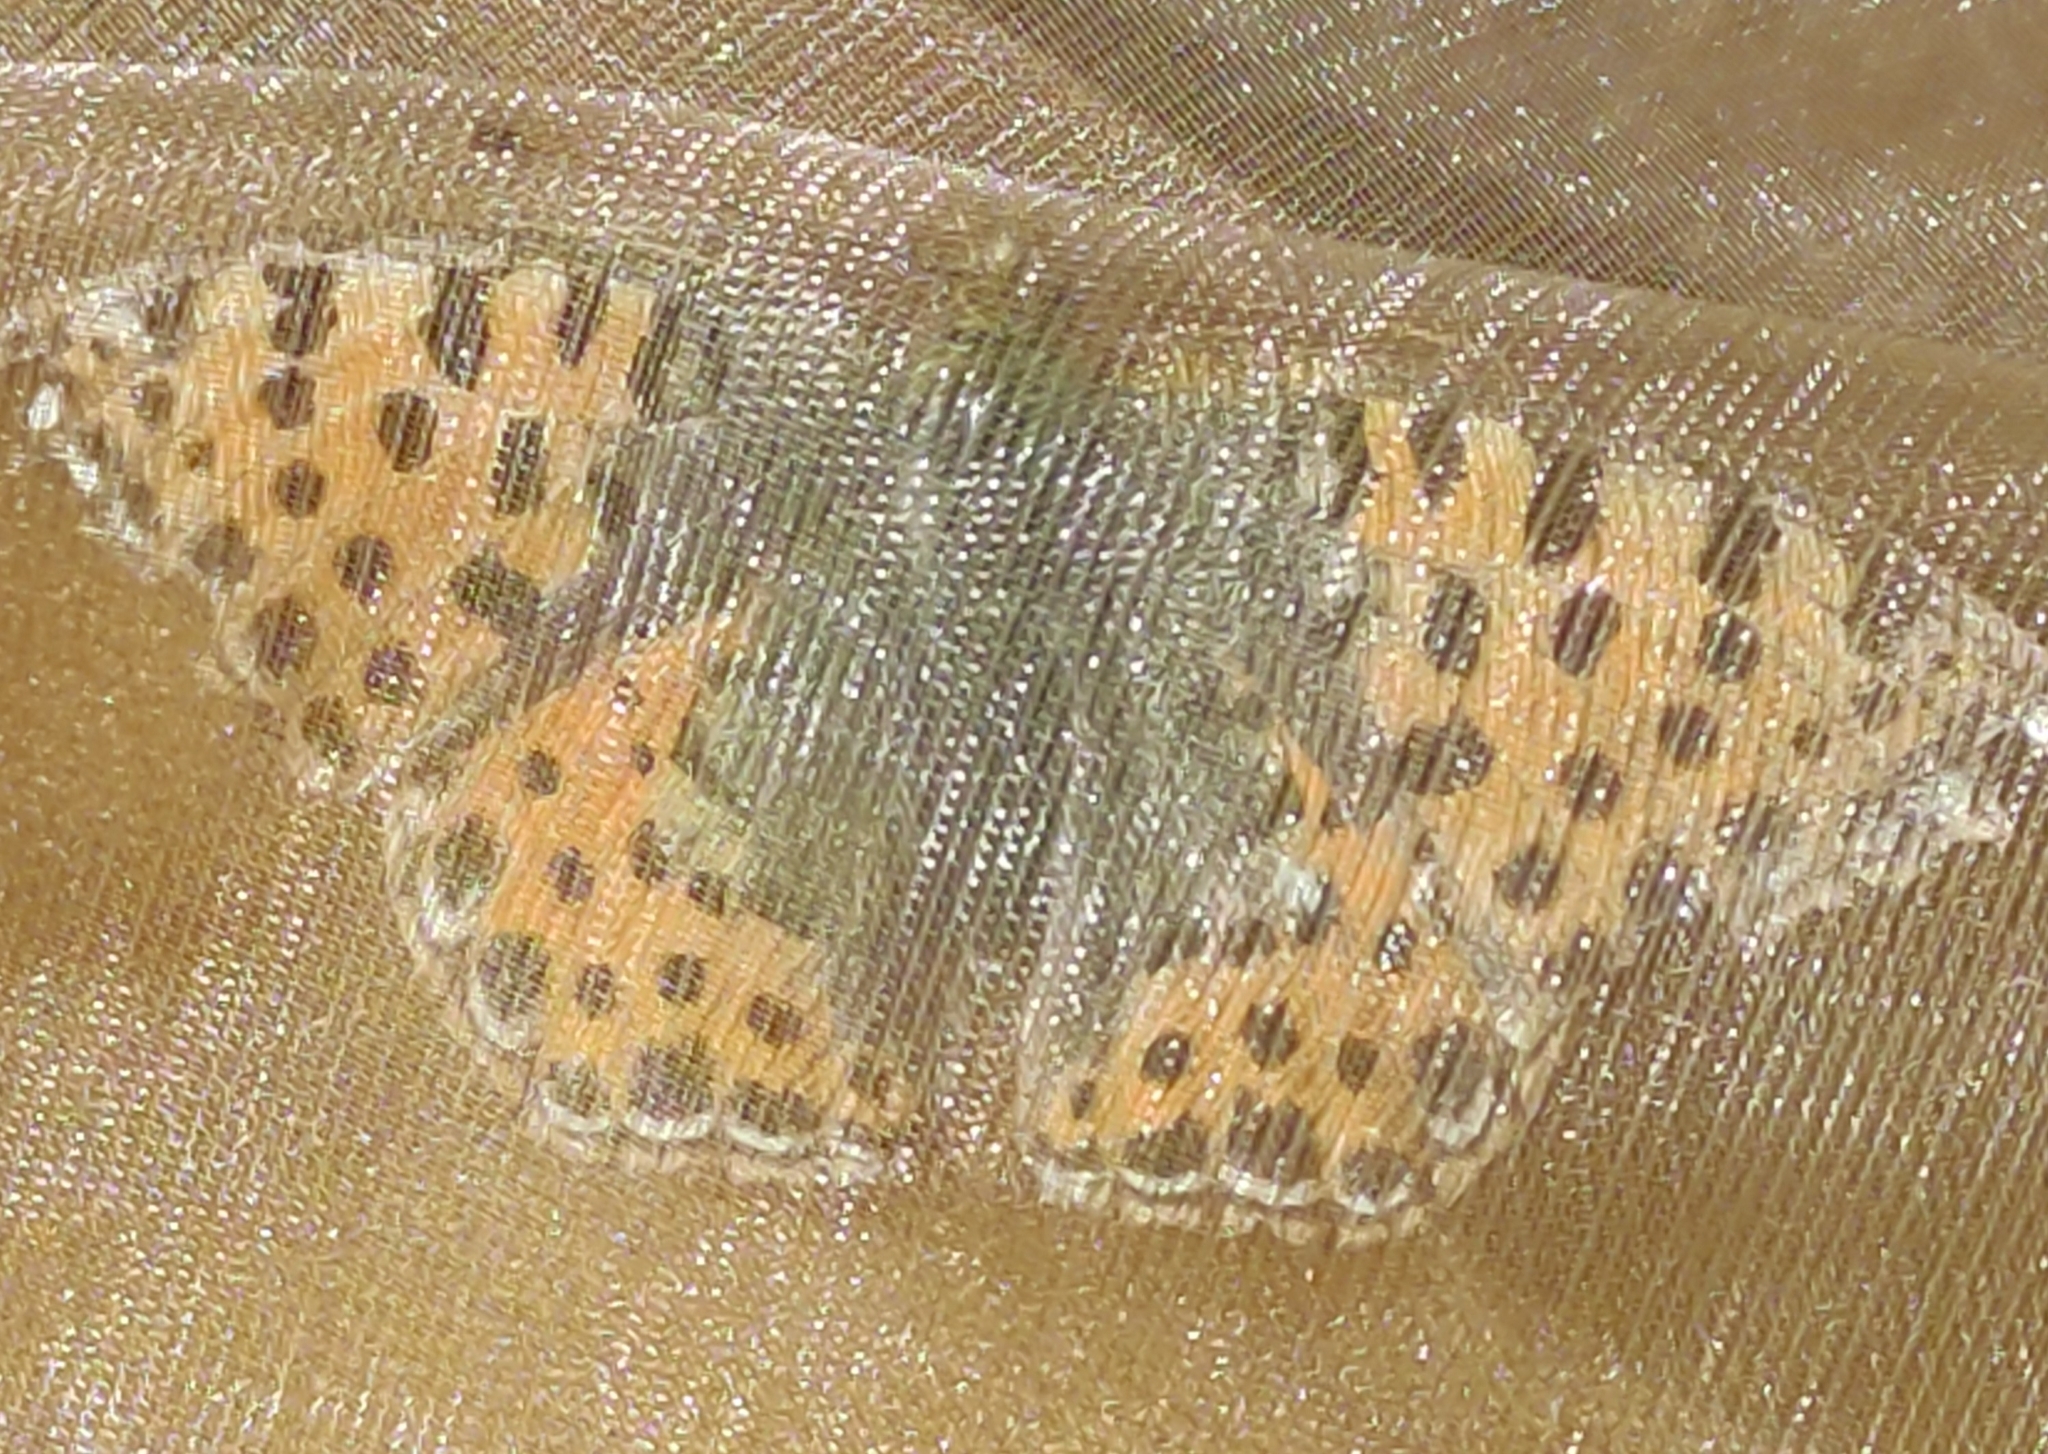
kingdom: Animalia
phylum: Arthropoda
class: Insecta
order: Lepidoptera
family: Nymphalidae
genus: Issoria
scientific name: Issoria lathonia
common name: Queen of spain fritillary
